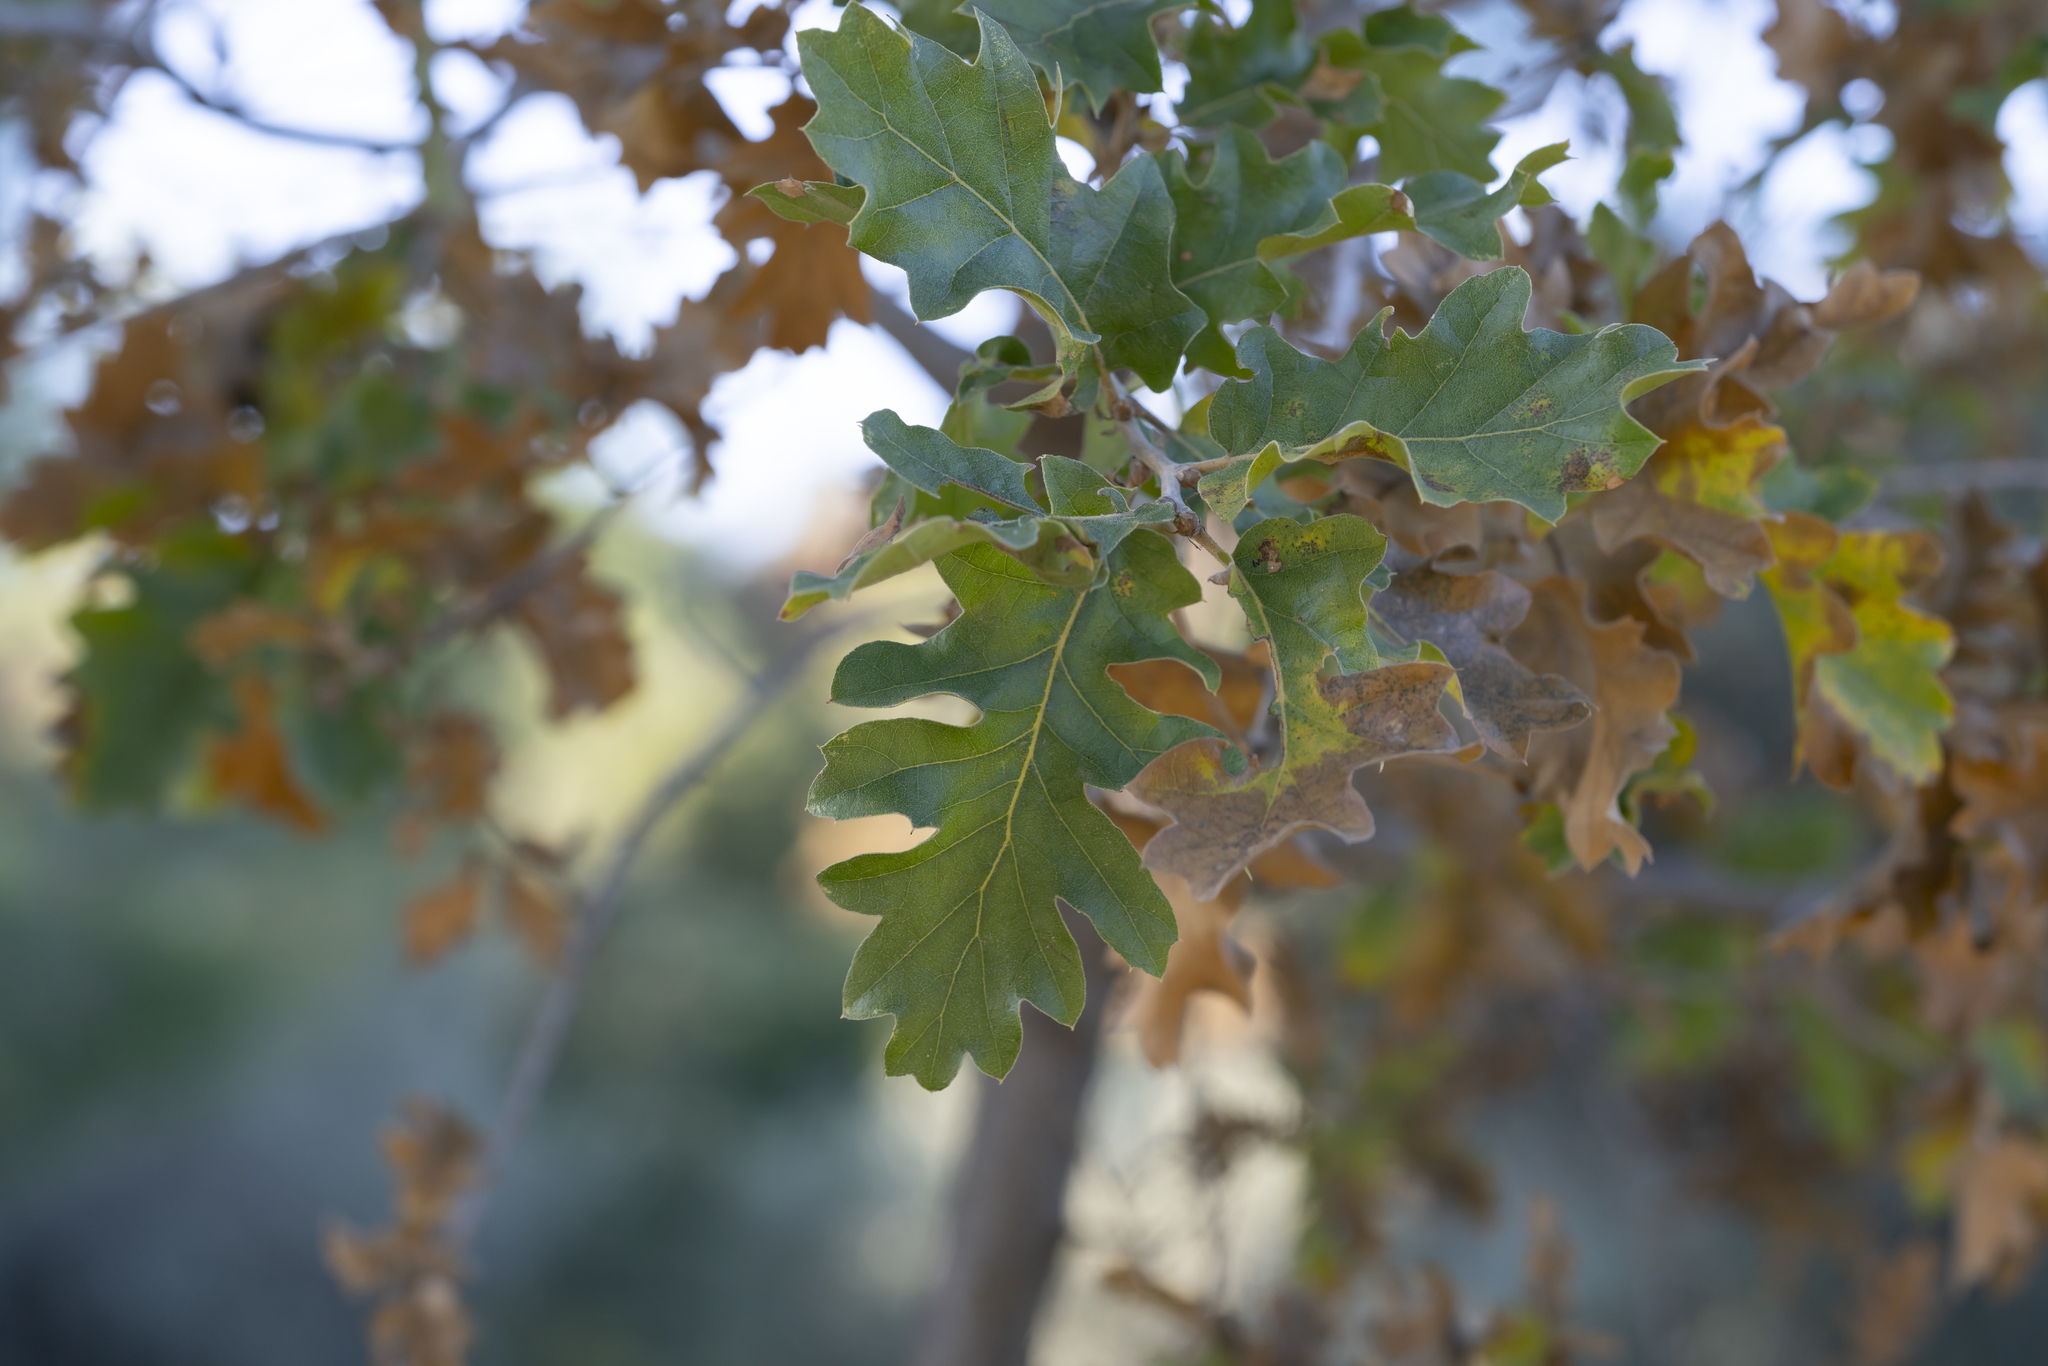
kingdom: Plantae
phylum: Tracheophyta
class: Magnoliopsida
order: Fagales
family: Fagaceae
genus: Quercus
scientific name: Quercus ithaburensis
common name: Tabor oak
